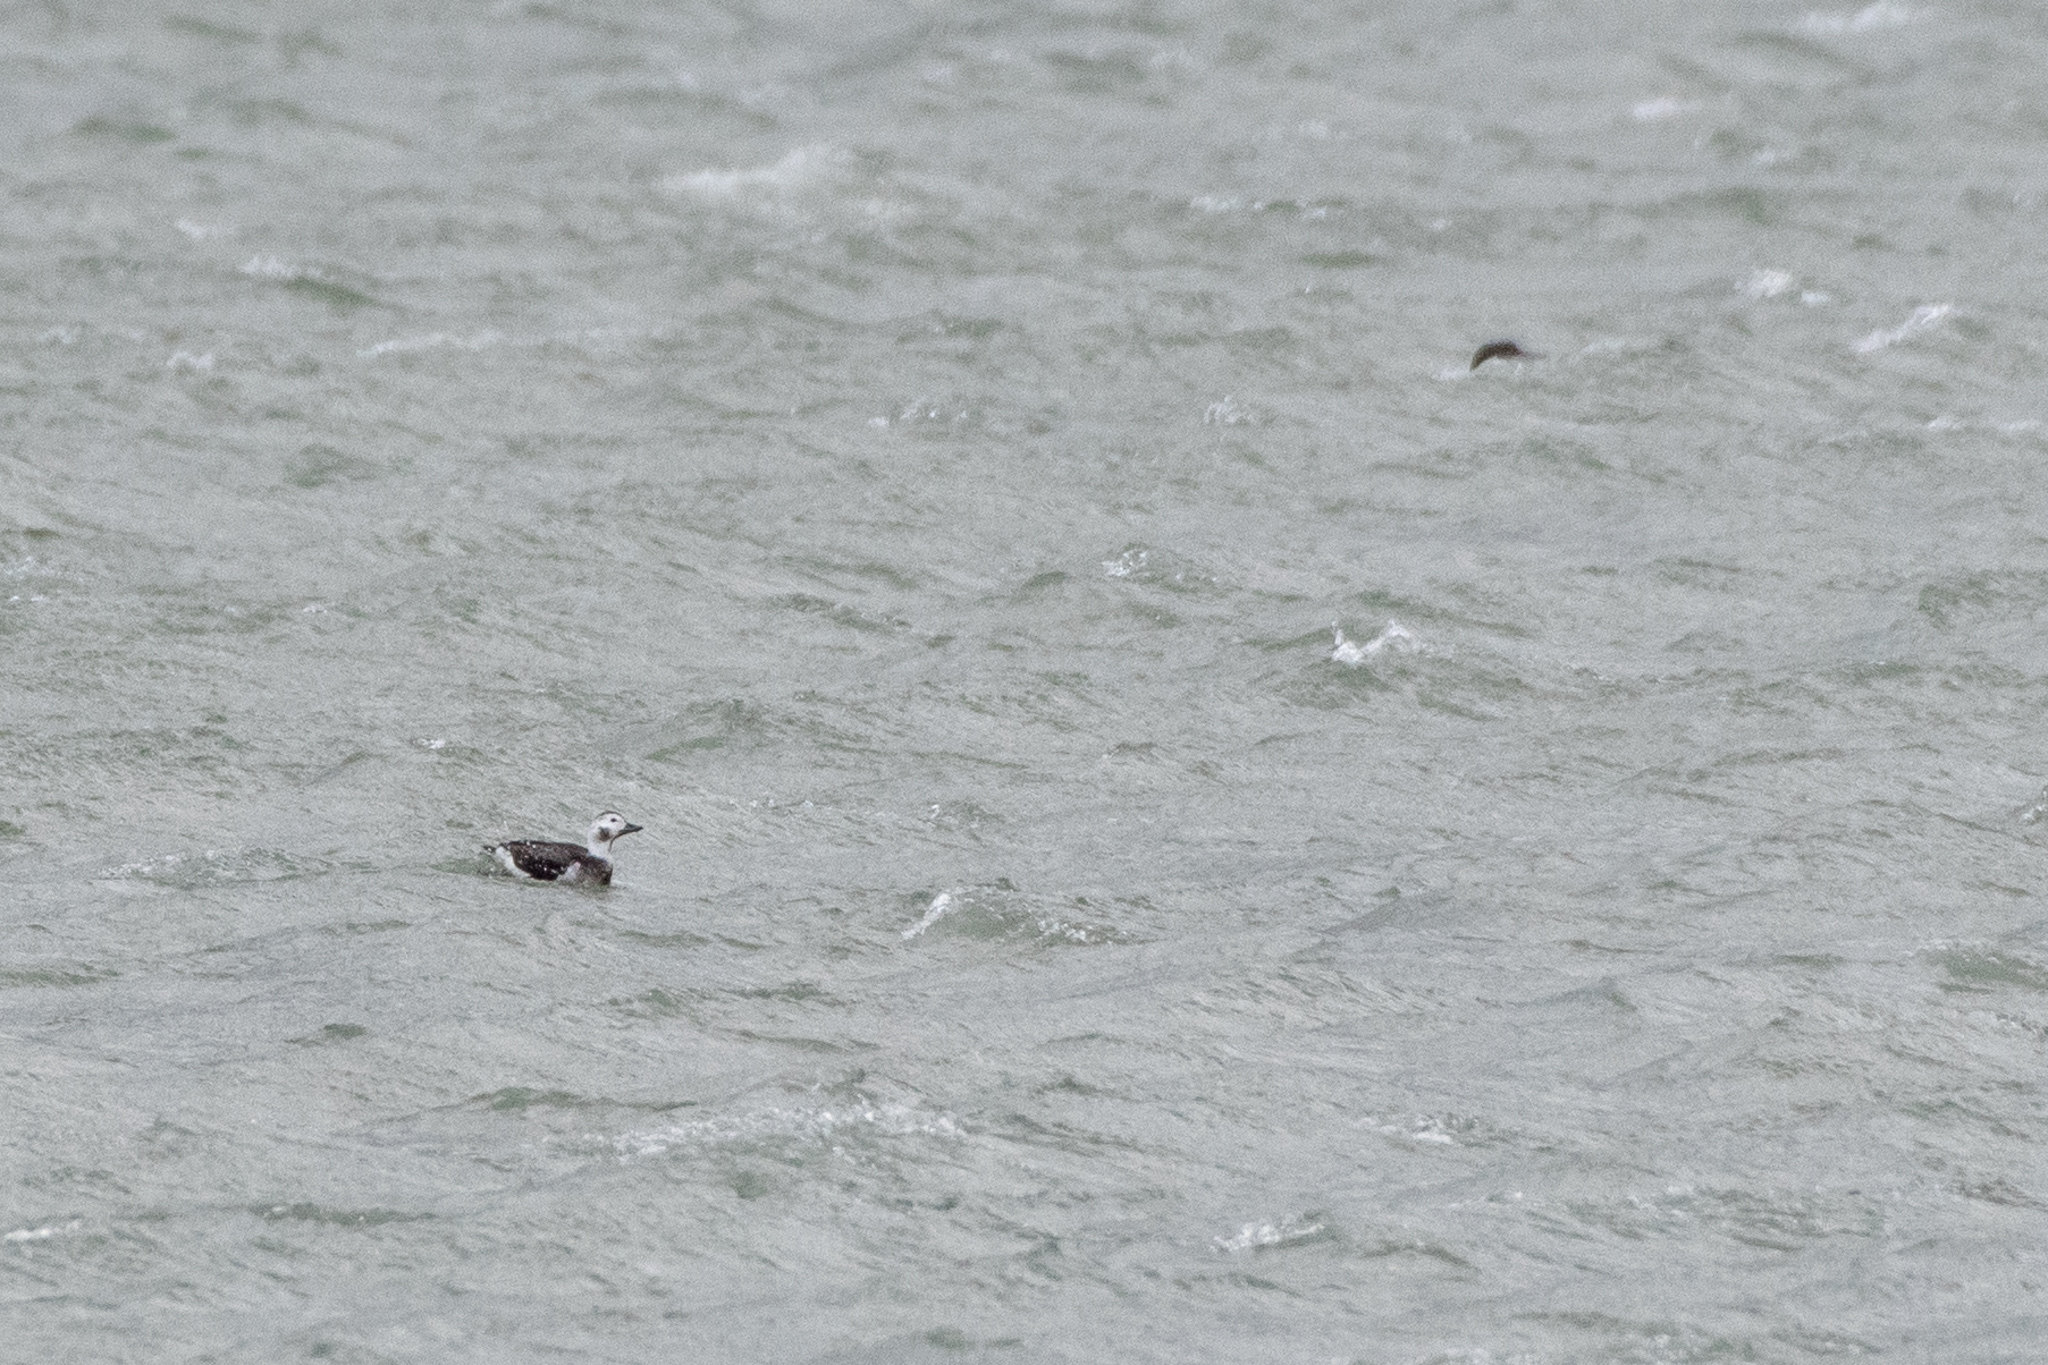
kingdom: Animalia
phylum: Chordata
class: Aves
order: Anseriformes
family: Anatidae
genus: Clangula
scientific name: Clangula hyemalis
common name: Long-tailed duck
